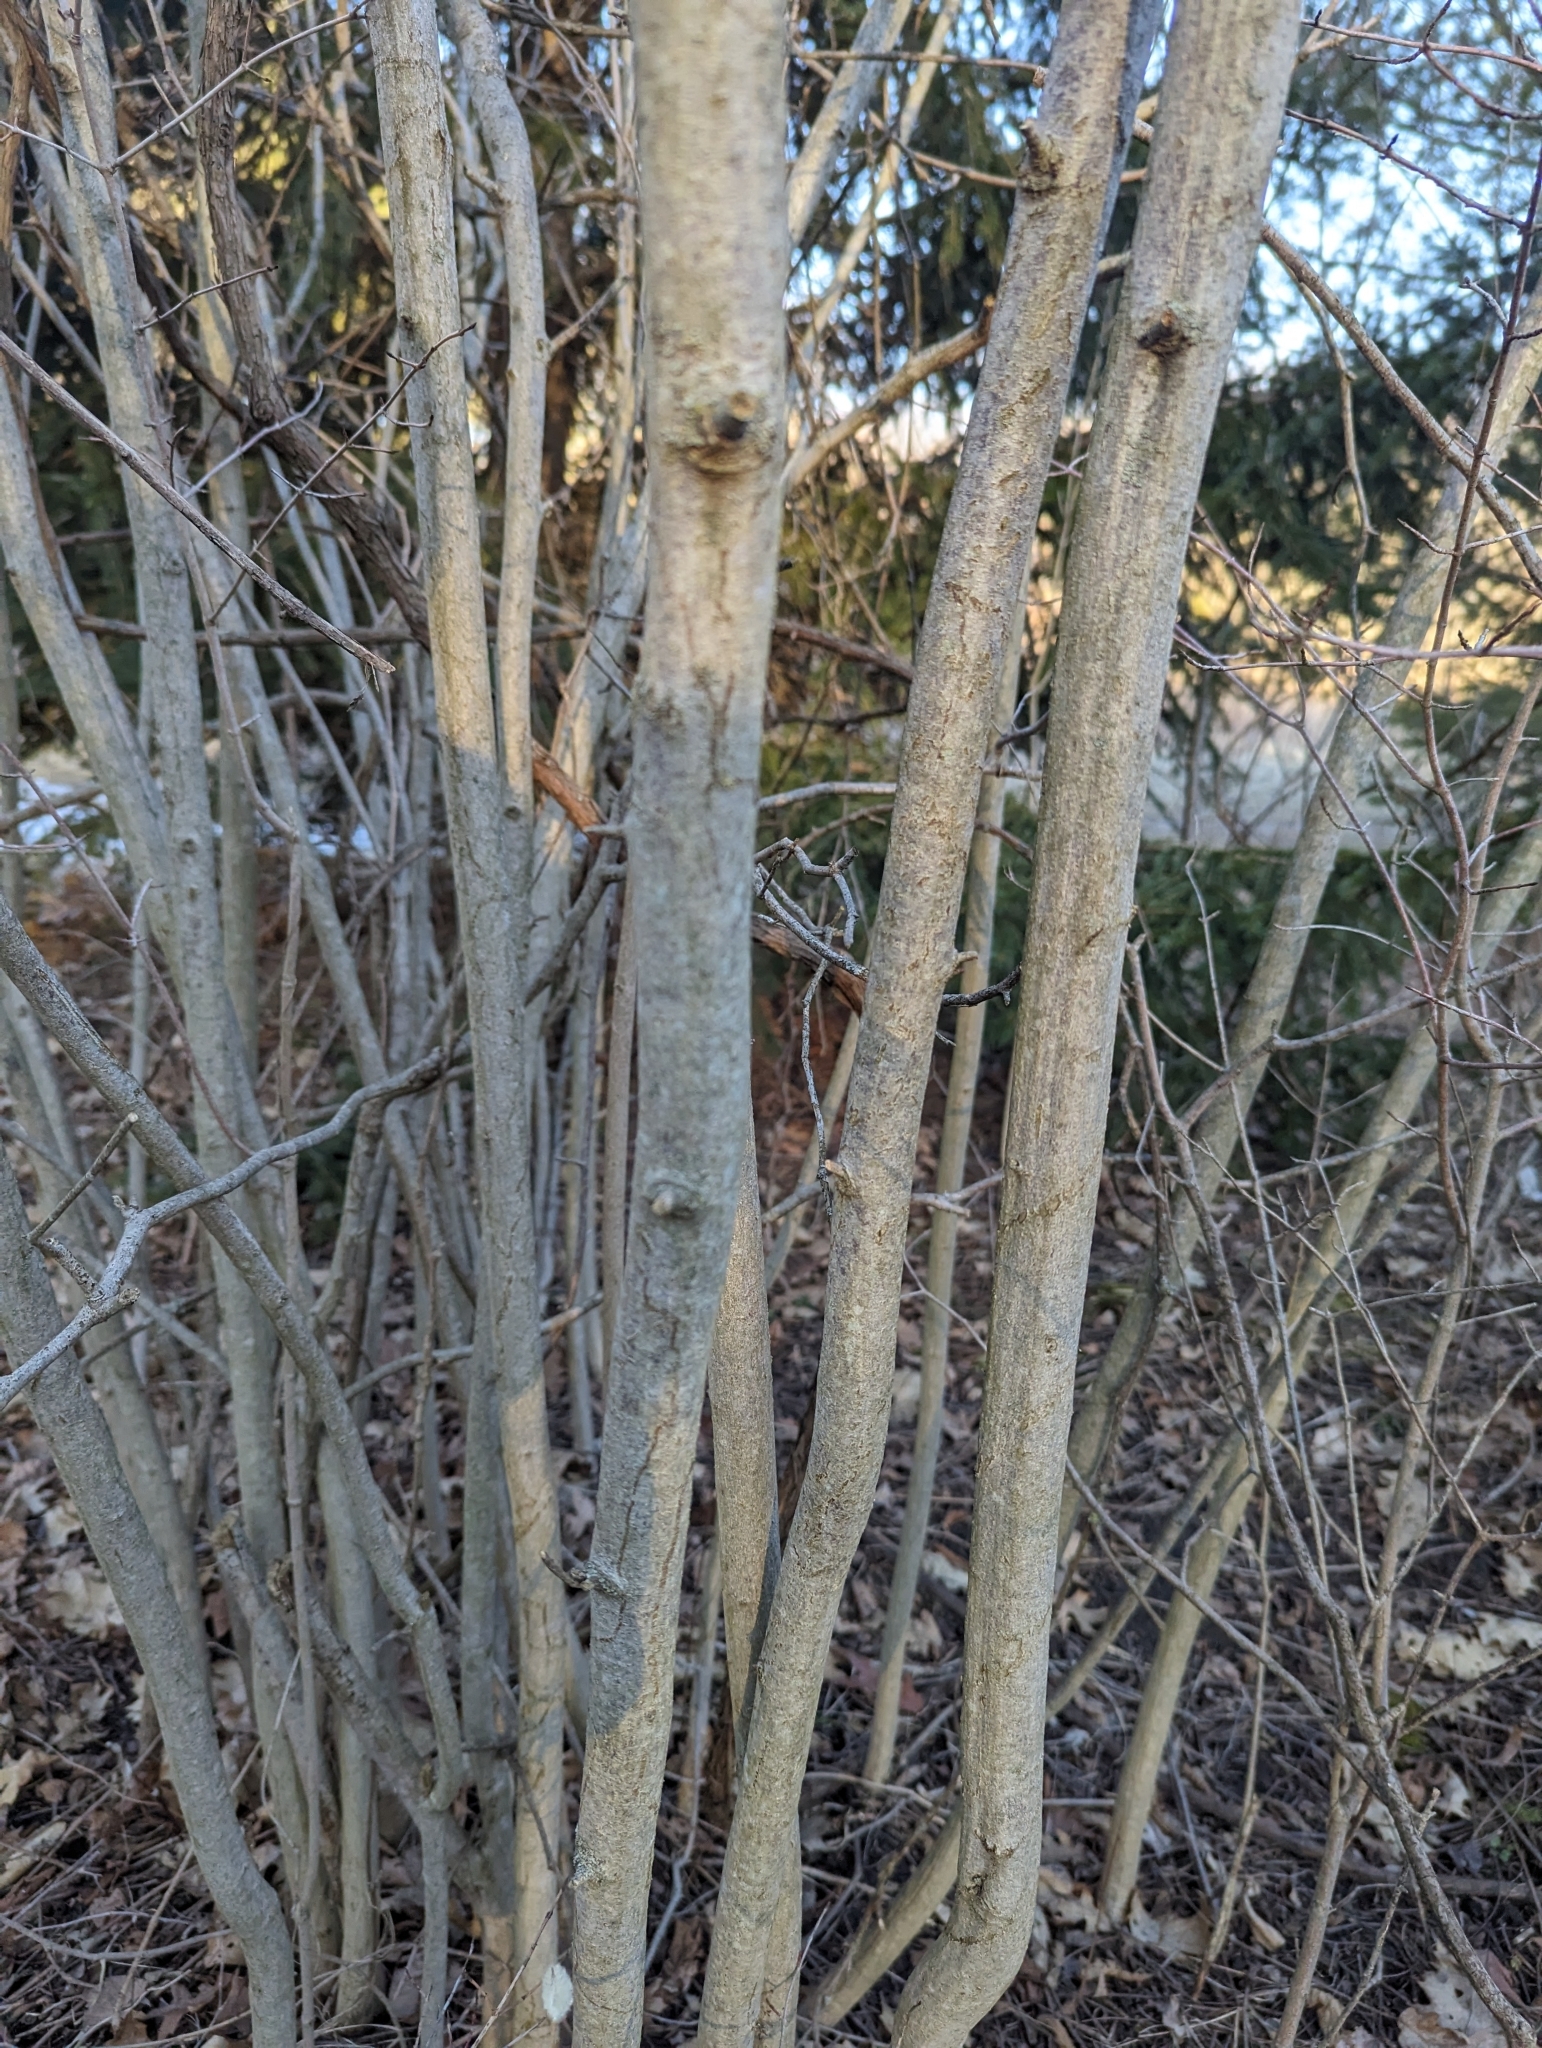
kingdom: Plantae
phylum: Tracheophyta
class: Magnoliopsida
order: Fagales
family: Betulaceae
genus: Corylus
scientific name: Corylus americana
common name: American hazel
